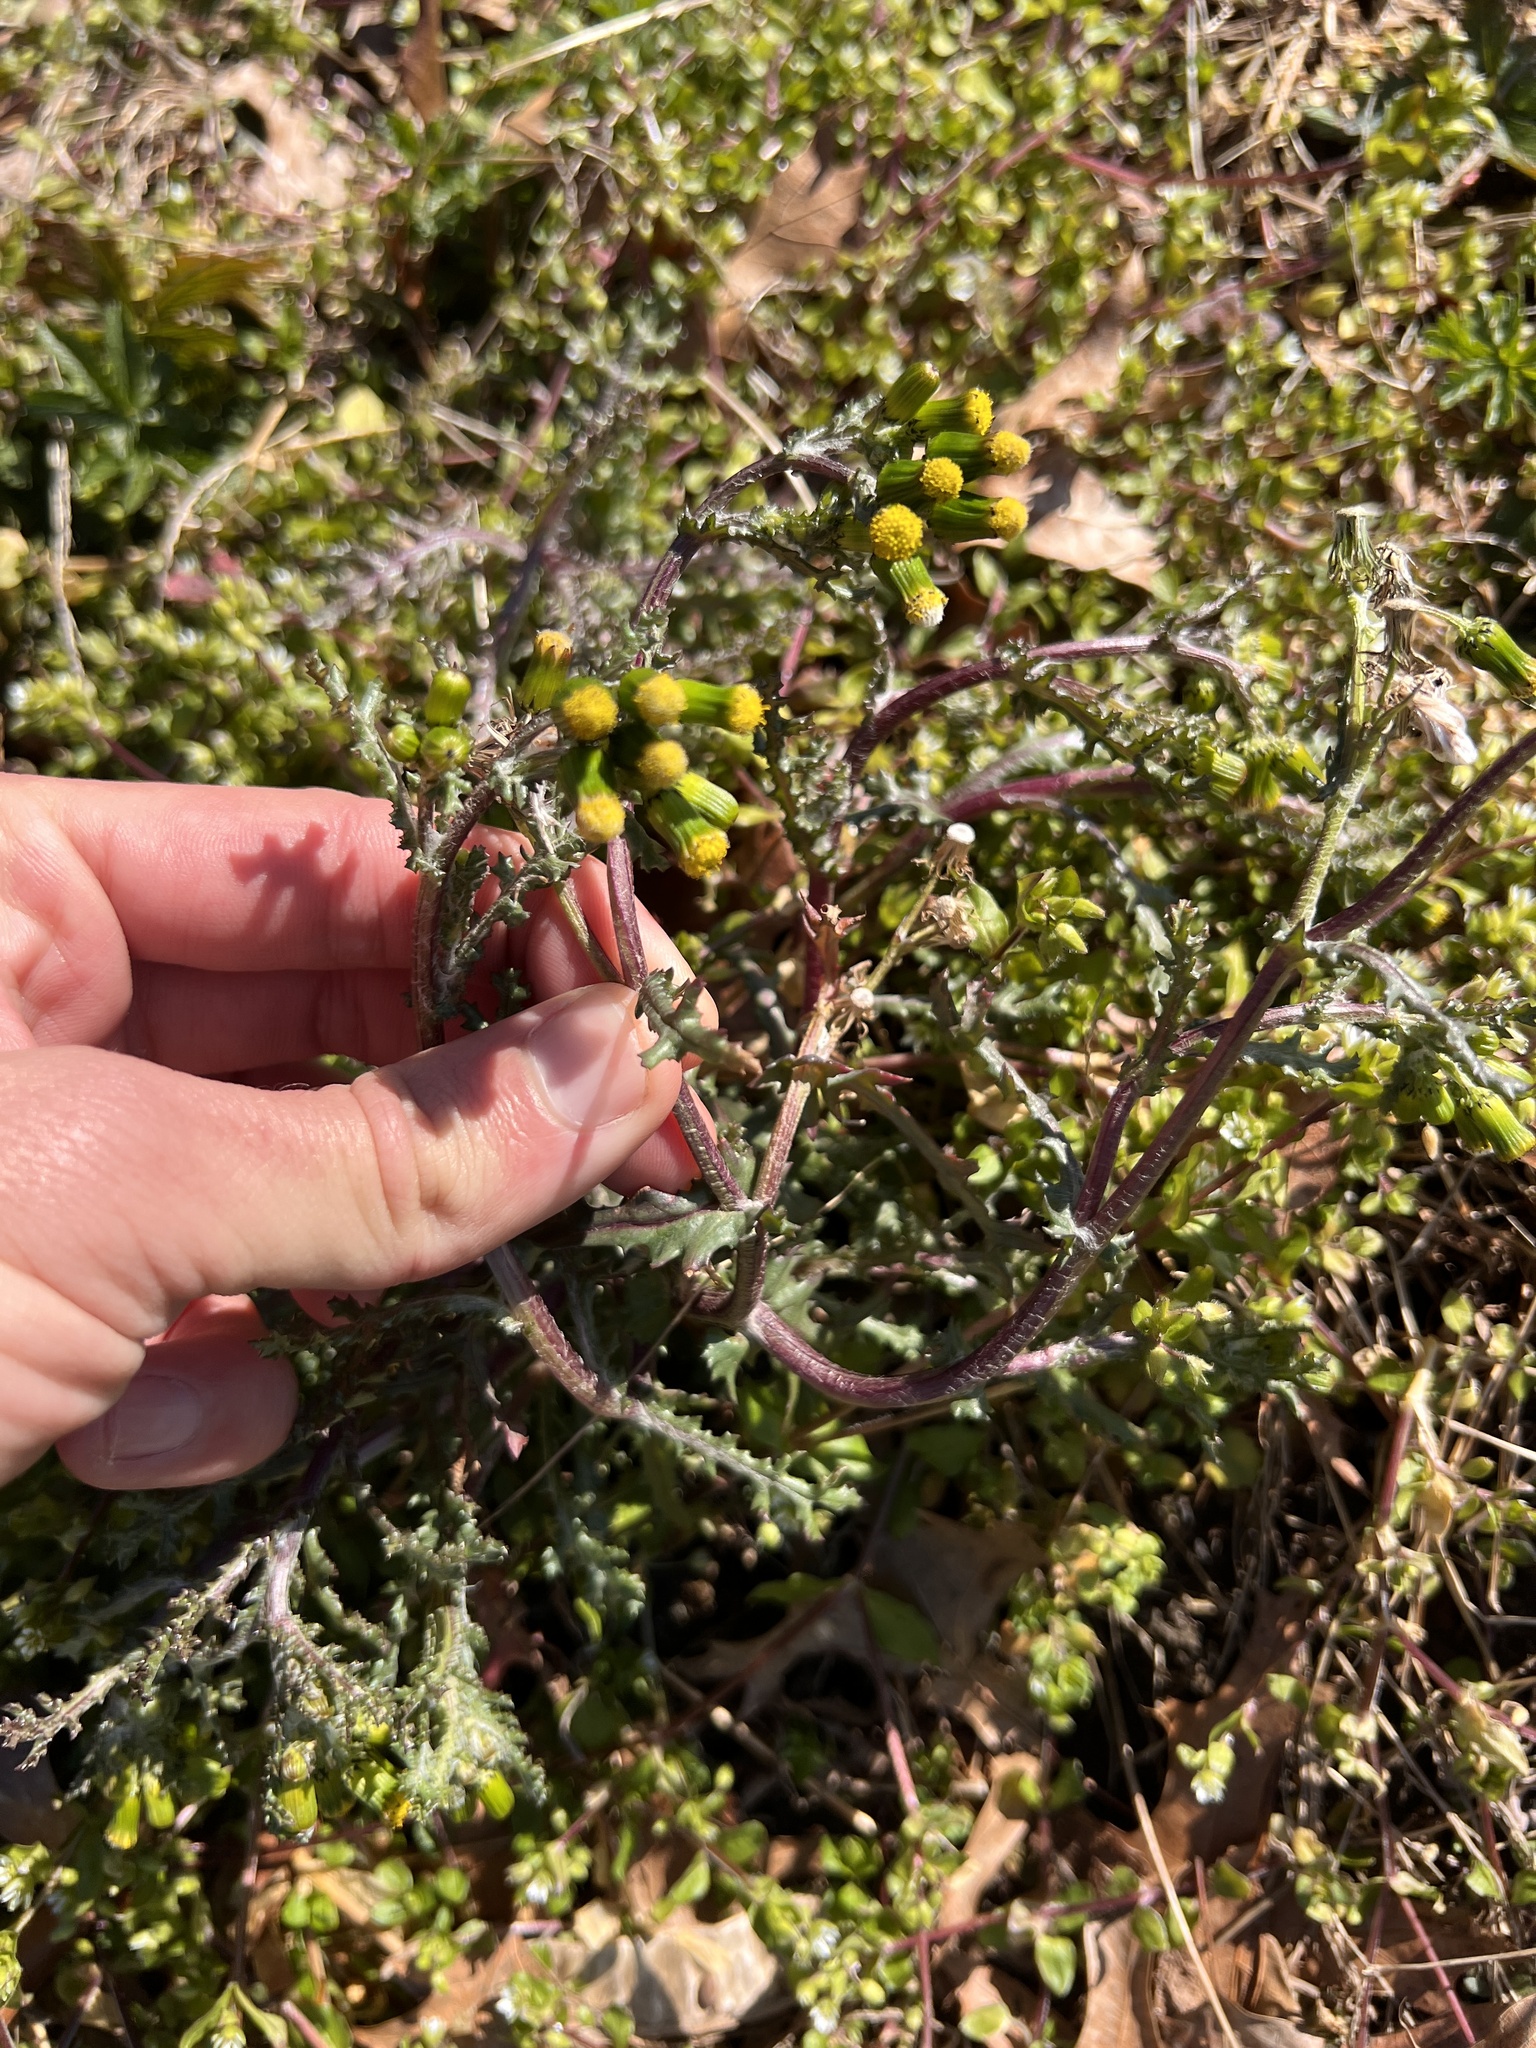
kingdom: Plantae
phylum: Tracheophyta
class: Magnoliopsida
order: Asterales
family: Asteraceae
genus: Senecio
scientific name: Senecio vulgaris
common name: Old-man-in-the-spring
